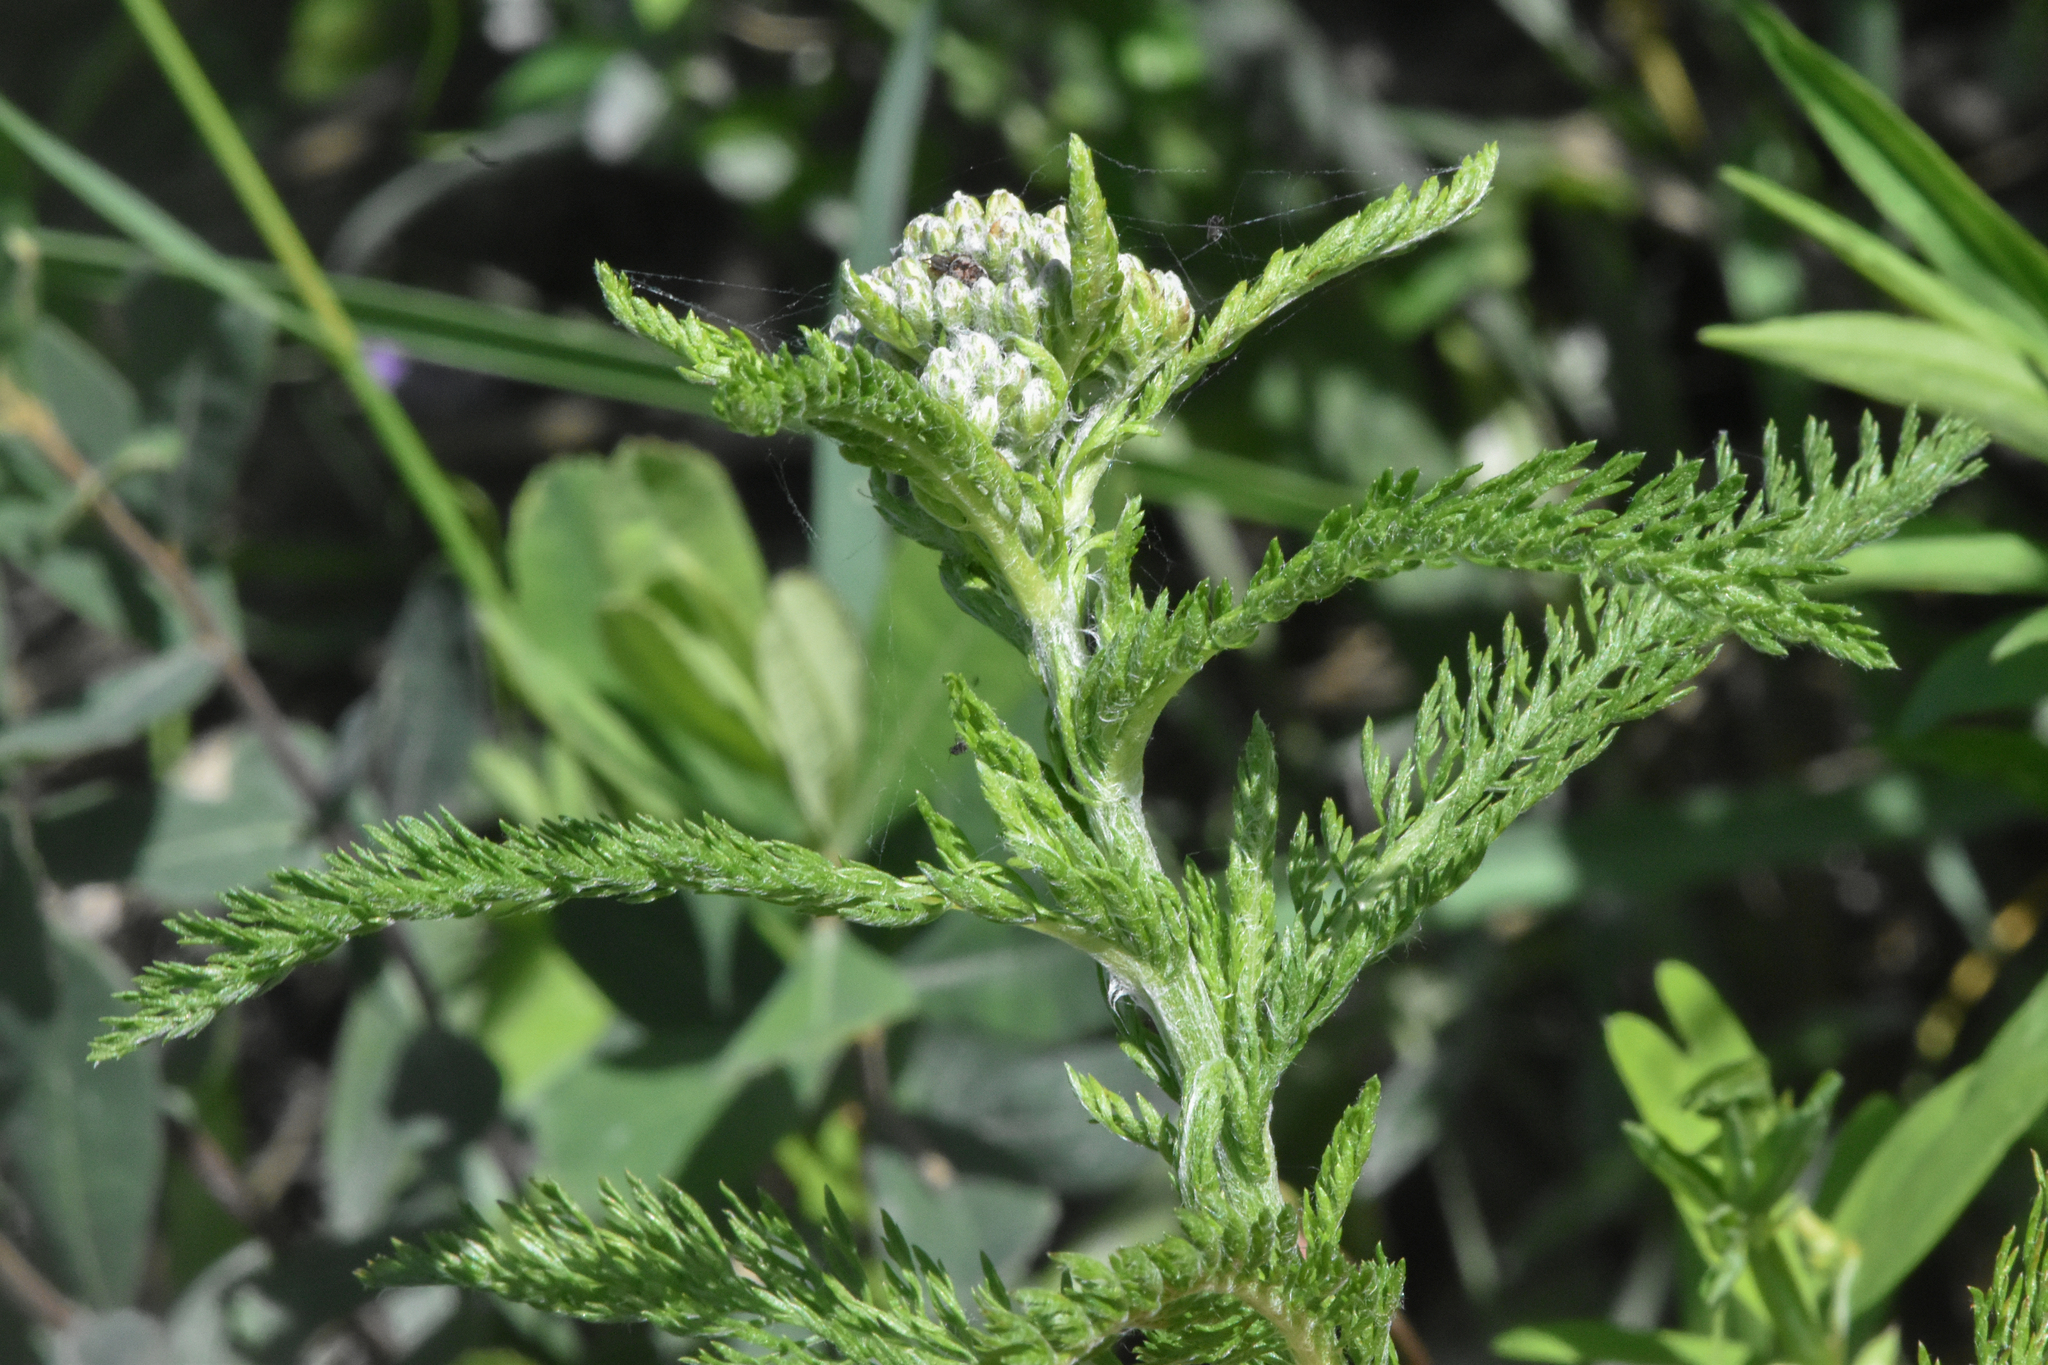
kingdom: Plantae
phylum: Tracheophyta
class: Magnoliopsida
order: Asterales
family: Asteraceae
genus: Achillea
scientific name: Achillea millefolium
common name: Yarrow
